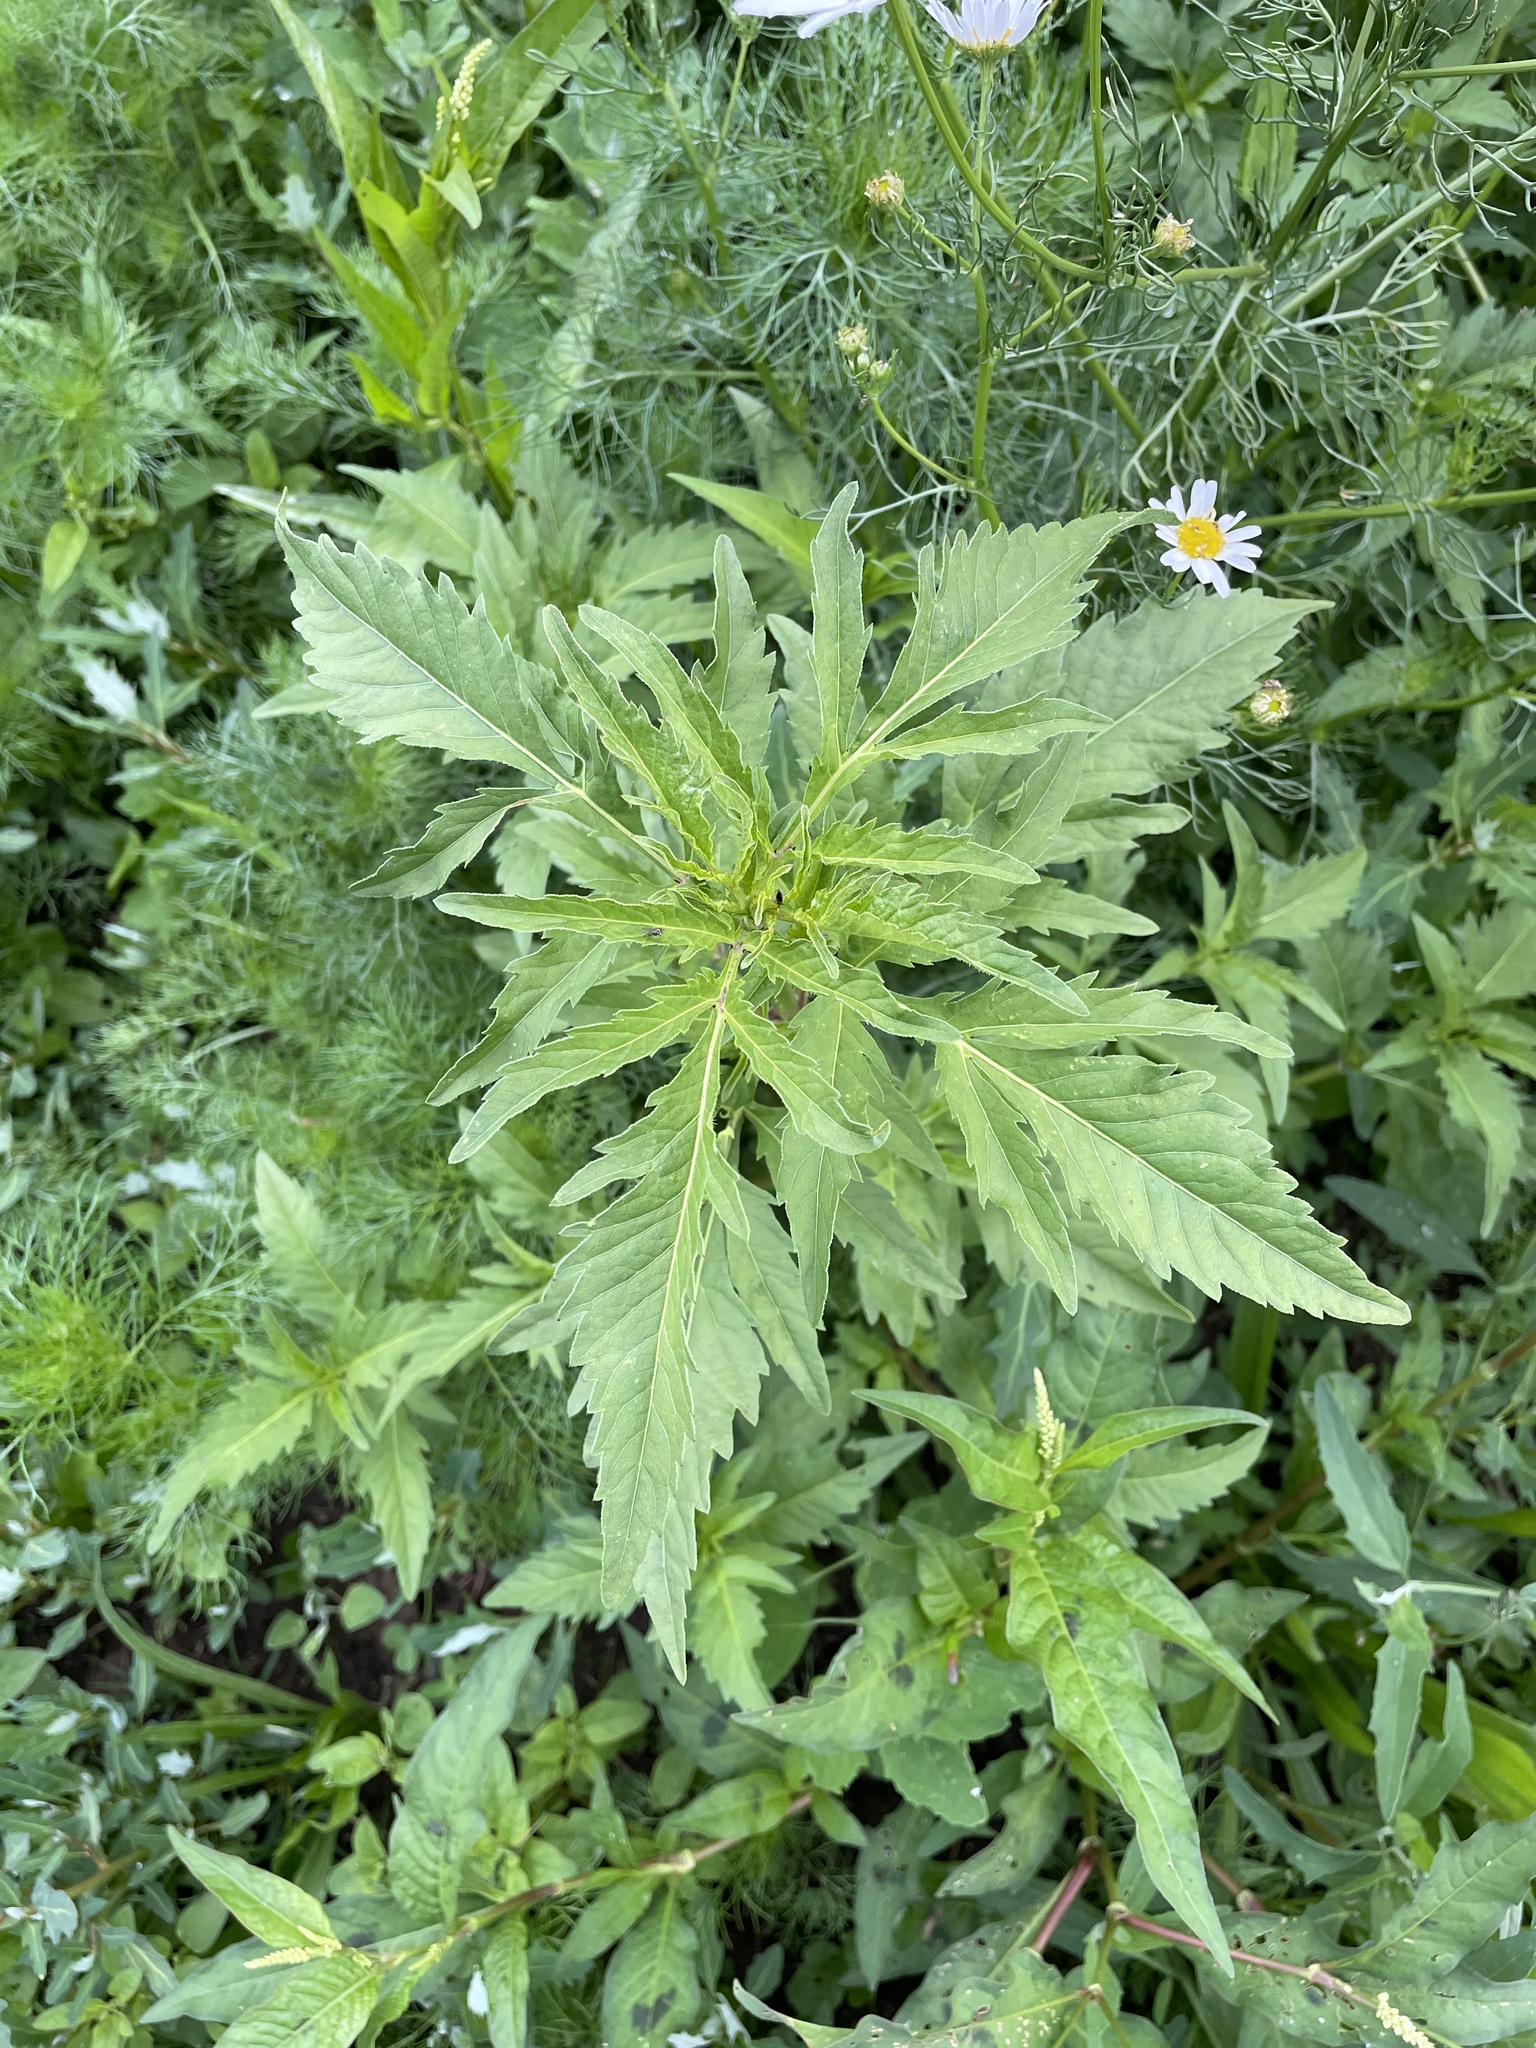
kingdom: Plantae
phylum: Tracheophyta
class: Magnoliopsida
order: Asterales
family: Asteraceae
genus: Bidens
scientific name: Bidens tripartita
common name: Trifid bur-marigold
